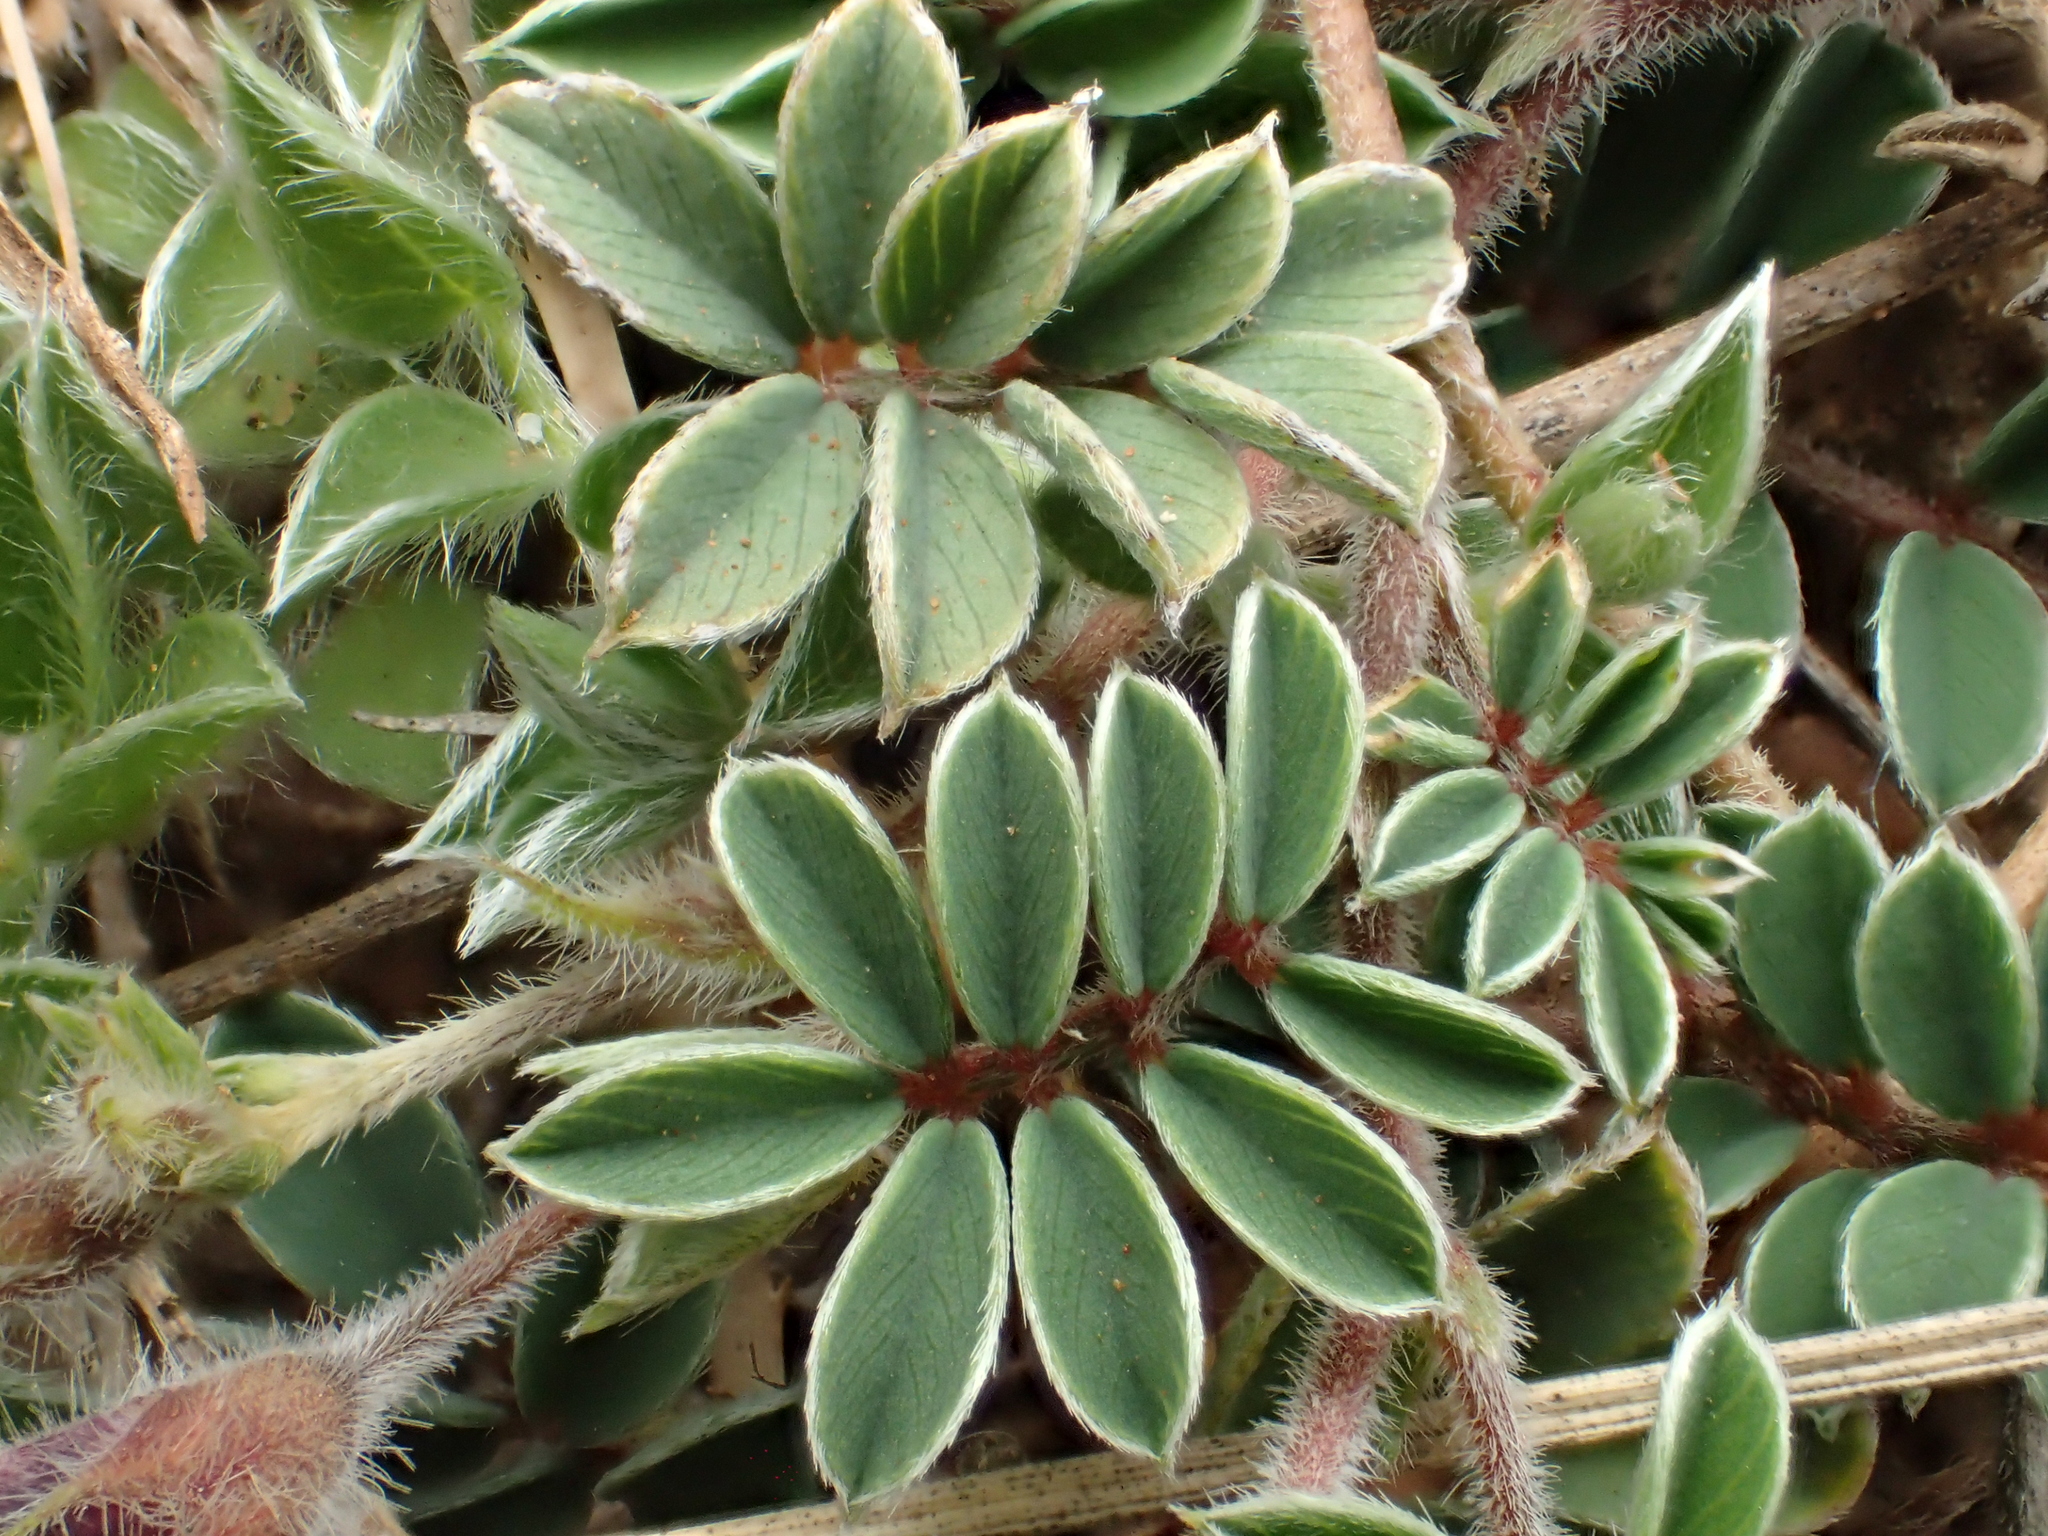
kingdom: Plantae
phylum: Tracheophyta
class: Magnoliopsida
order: Fabales
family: Fabaceae
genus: Tephrosia
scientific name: Tephrosia obovata
